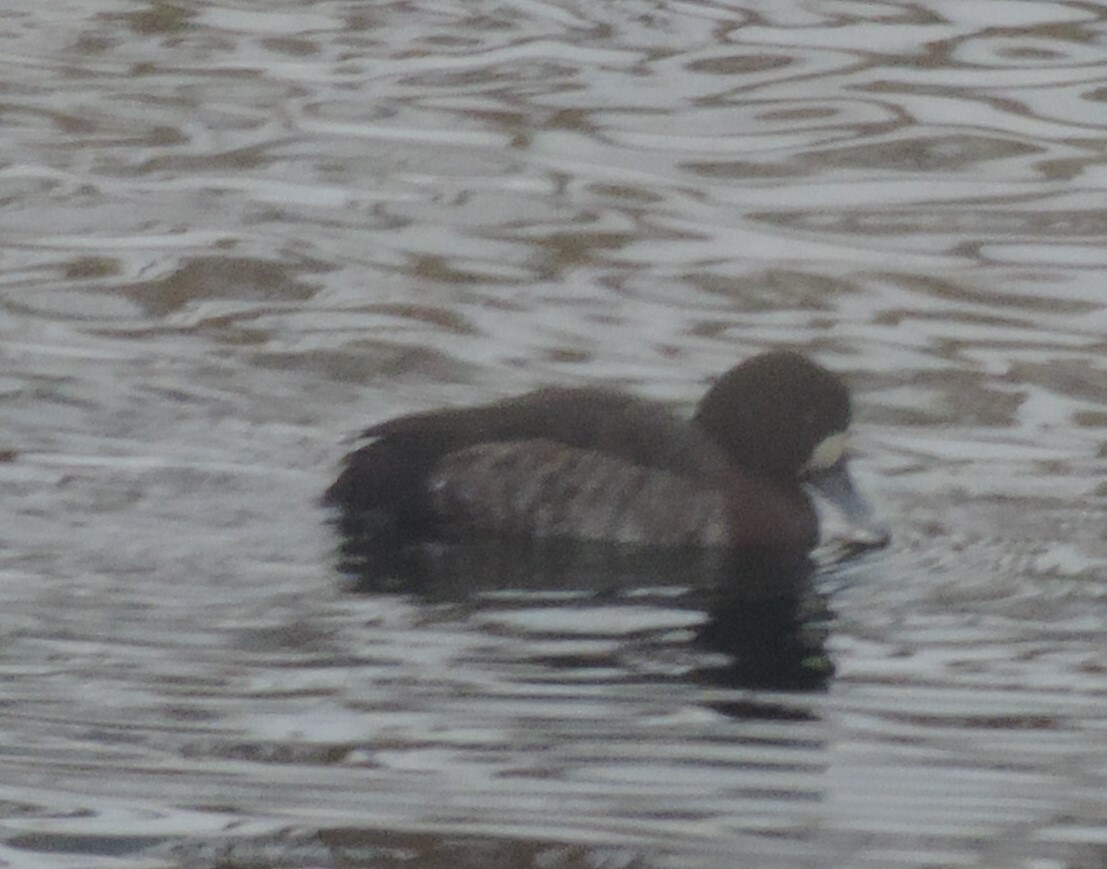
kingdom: Animalia
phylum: Chordata
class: Aves
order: Anseriformes
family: Anatidae
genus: Aythya
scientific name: Aythya marila
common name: Greater scaup
